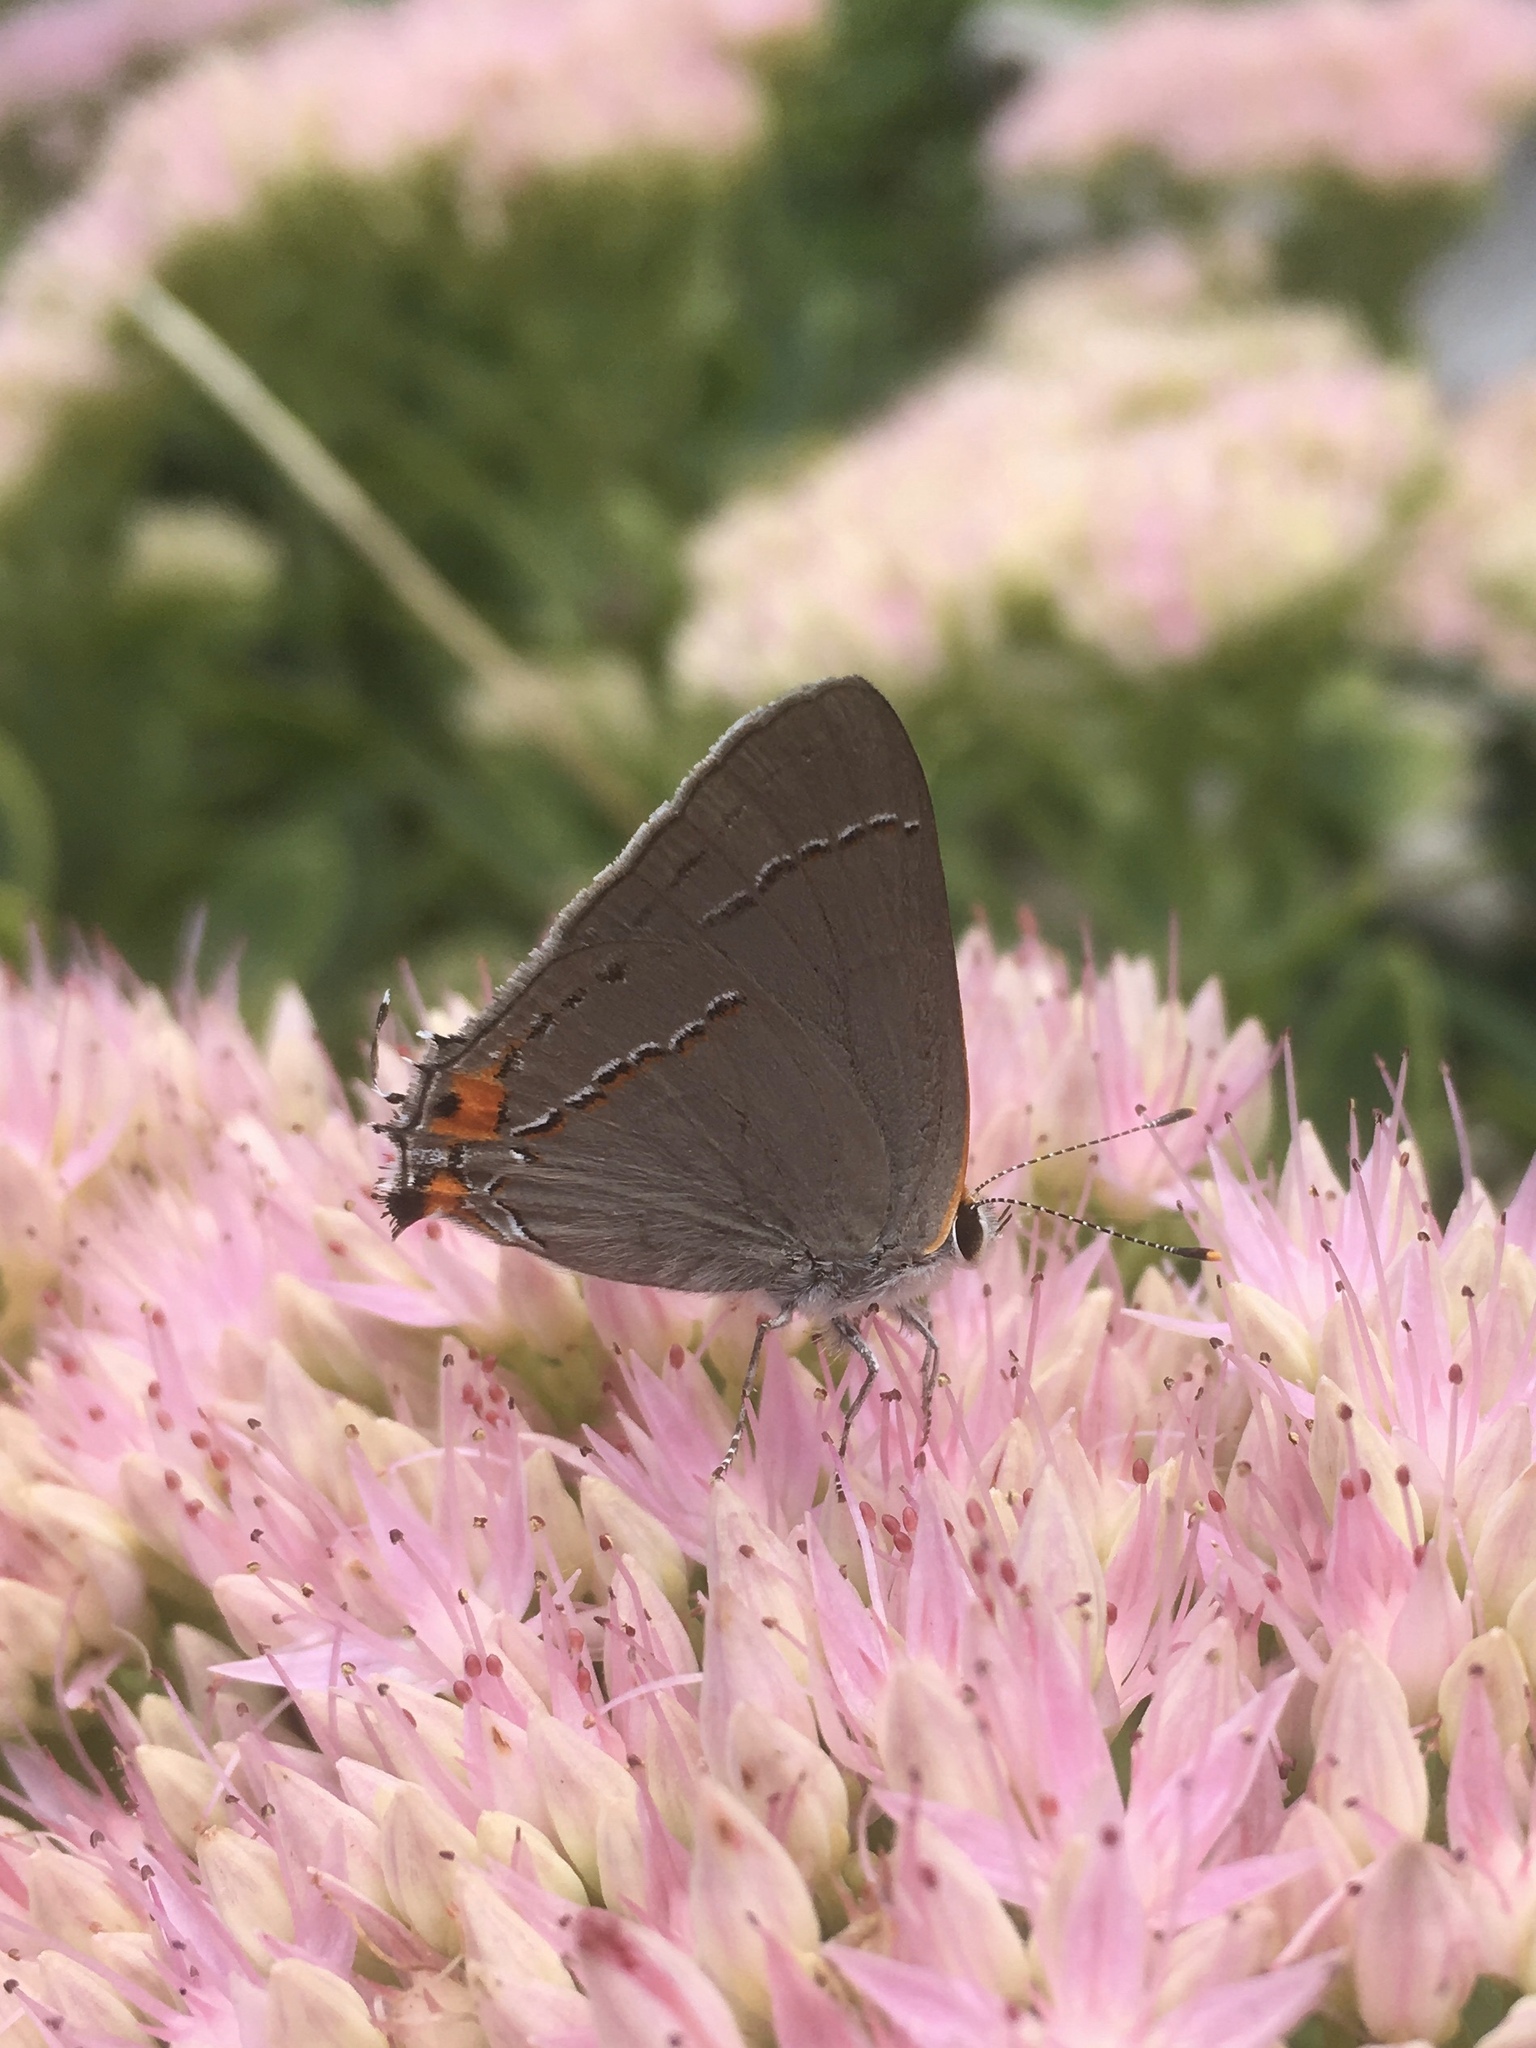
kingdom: Animalia
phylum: Arthropoda
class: Insecta
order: Lepidoptera
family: Lycaenidae
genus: Strymon
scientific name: Strymon melinus
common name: Gray hairstreak
